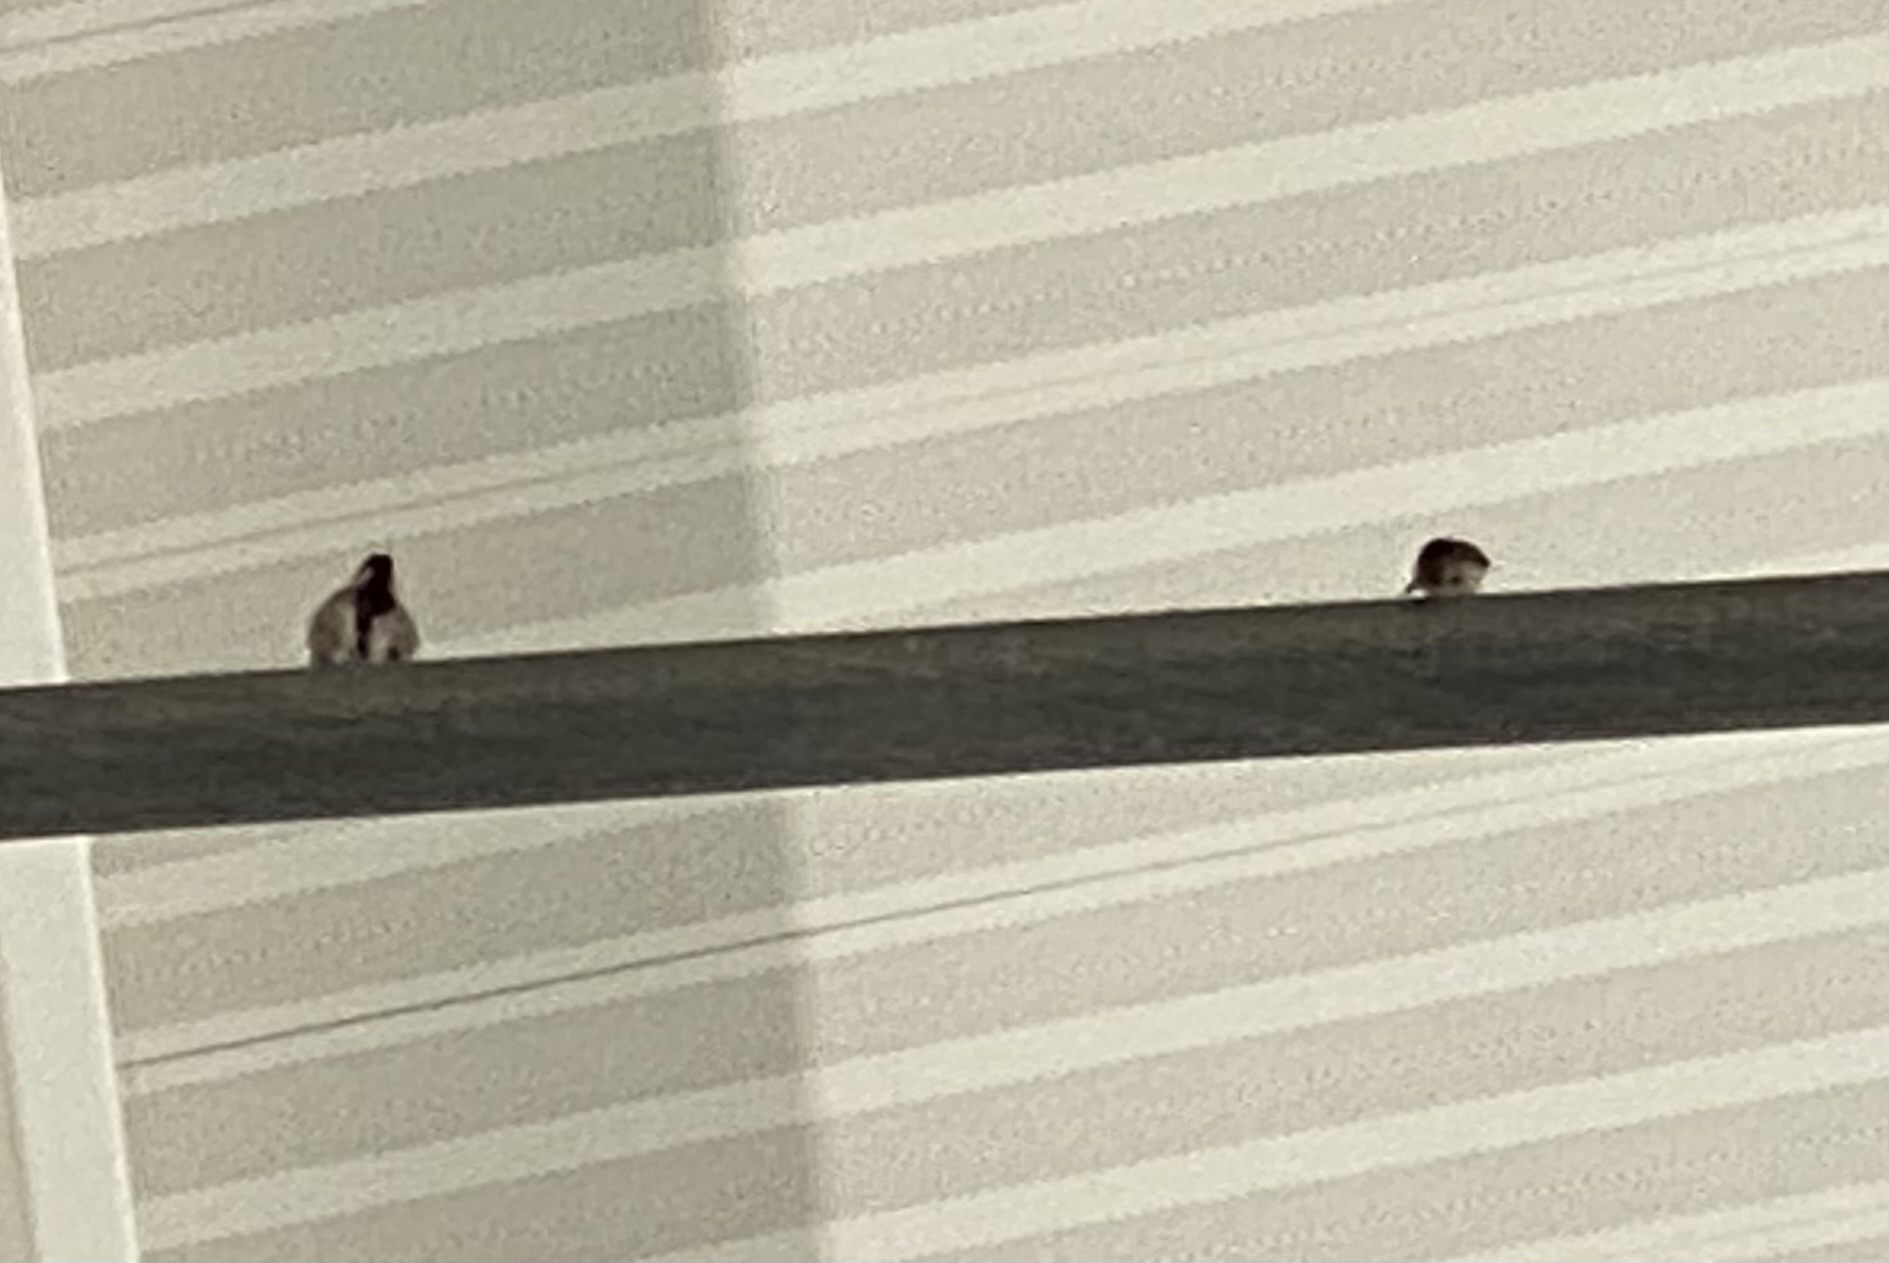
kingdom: Animalia
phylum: Chordata
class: Aves
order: Passeriformes
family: Passeridae
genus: Passer
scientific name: Passer domesticus
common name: House sparrow
